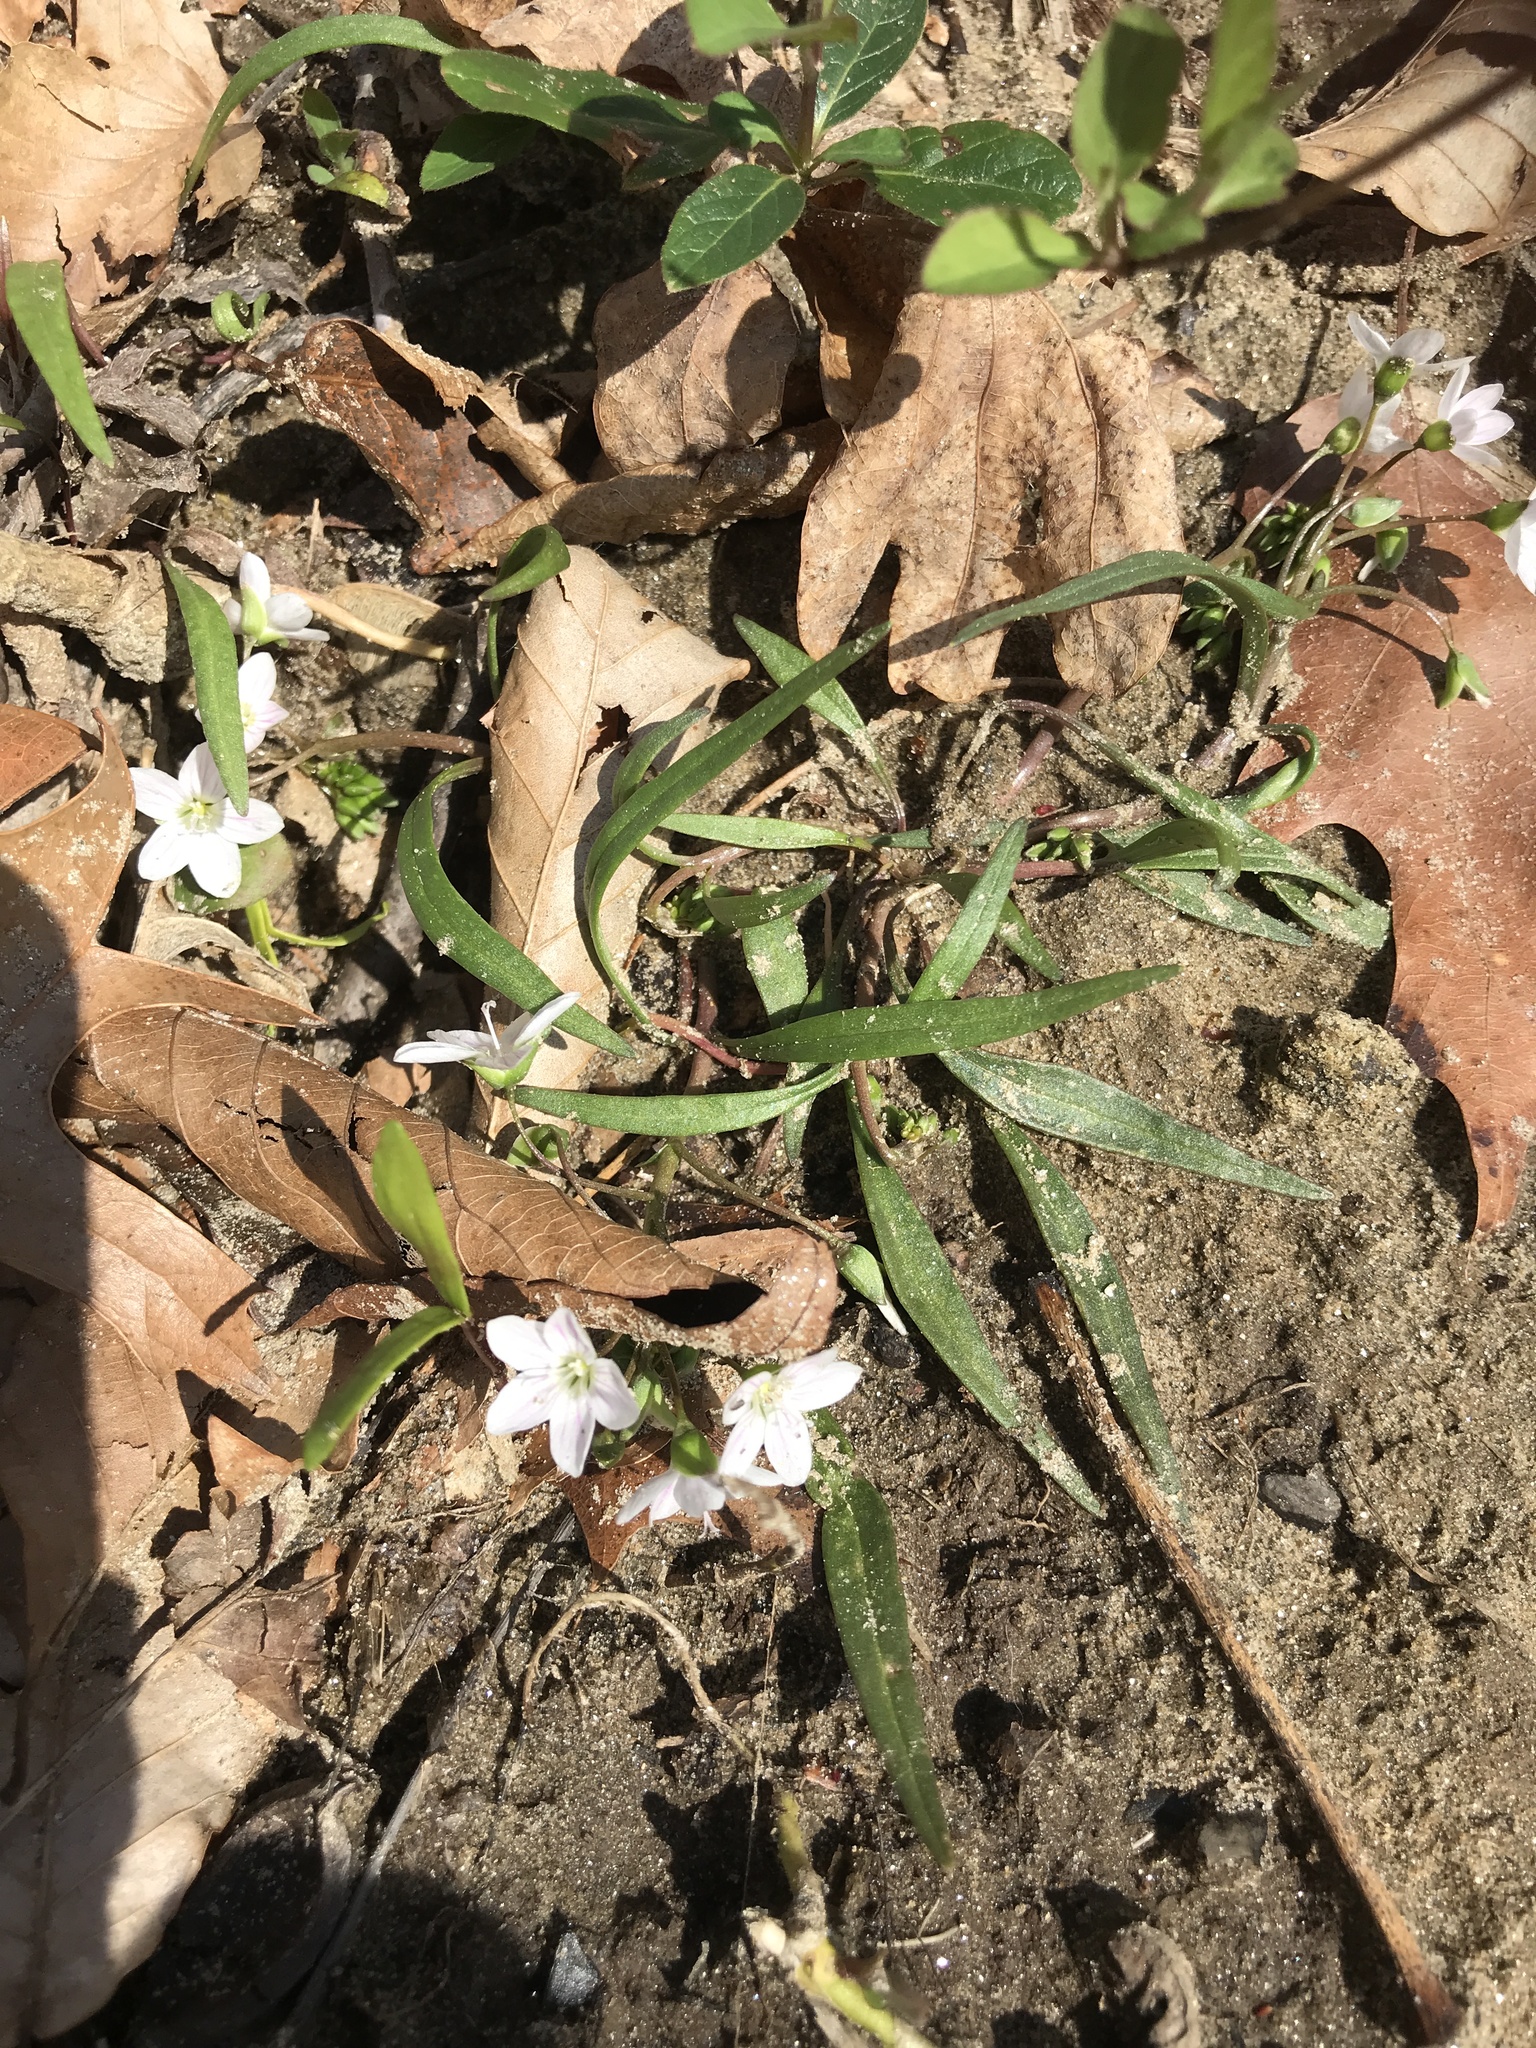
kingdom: Plantae
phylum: Tracheophyta
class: Magnoliopsida
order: Caryophyllales
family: Montiaceae
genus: Claytonia
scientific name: Claytonia virginica
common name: Virginia springbeauty
